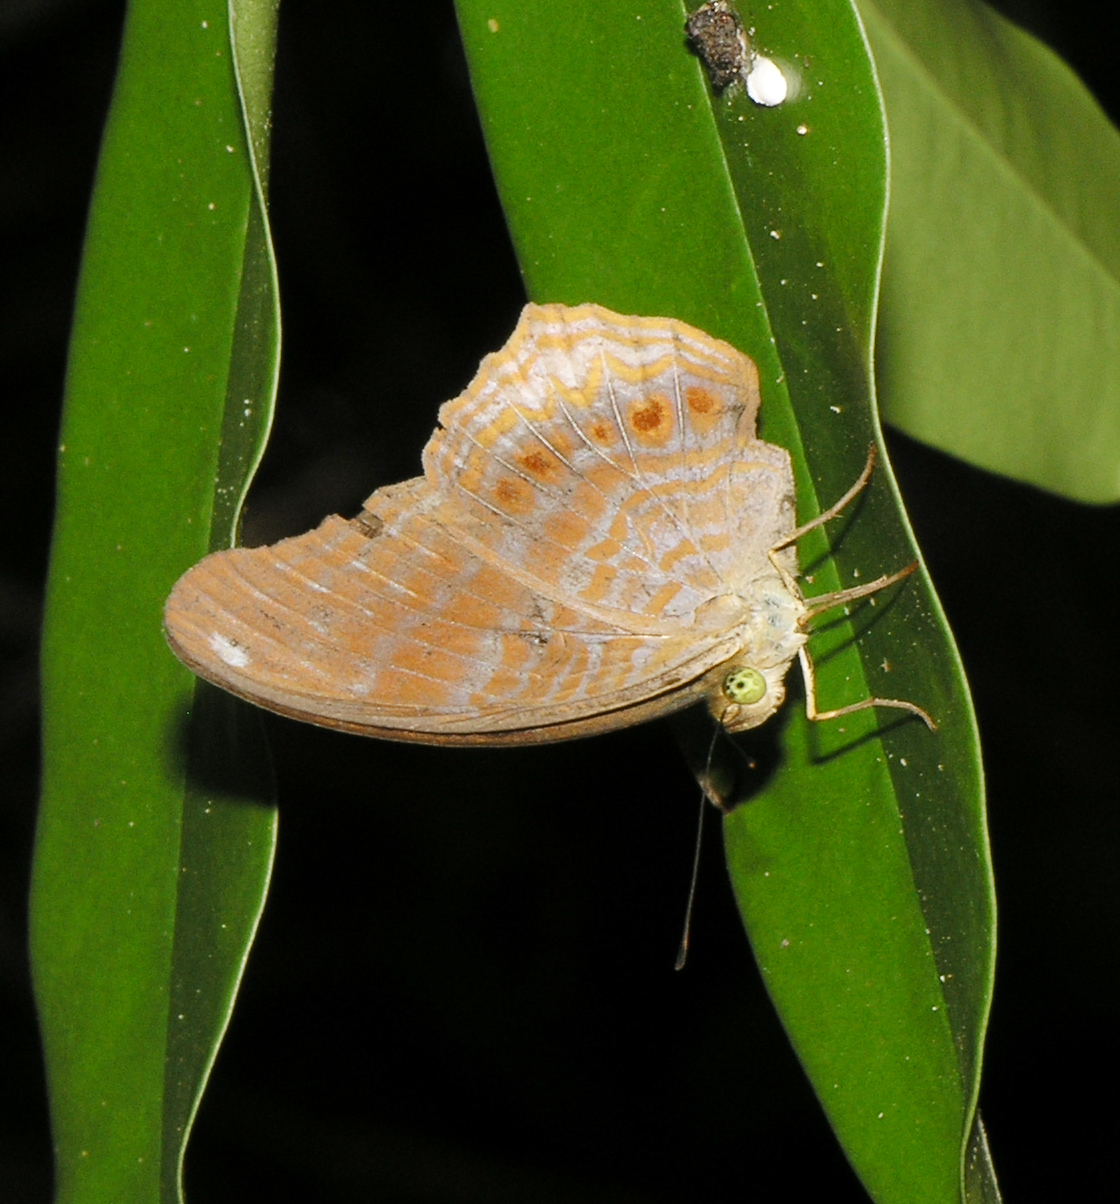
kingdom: Animalia
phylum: Arthropoda
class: Insecta
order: Lepidoptera
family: Nymphalidae
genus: Terinos
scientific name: Terinos terpander
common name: Royal assyrian
